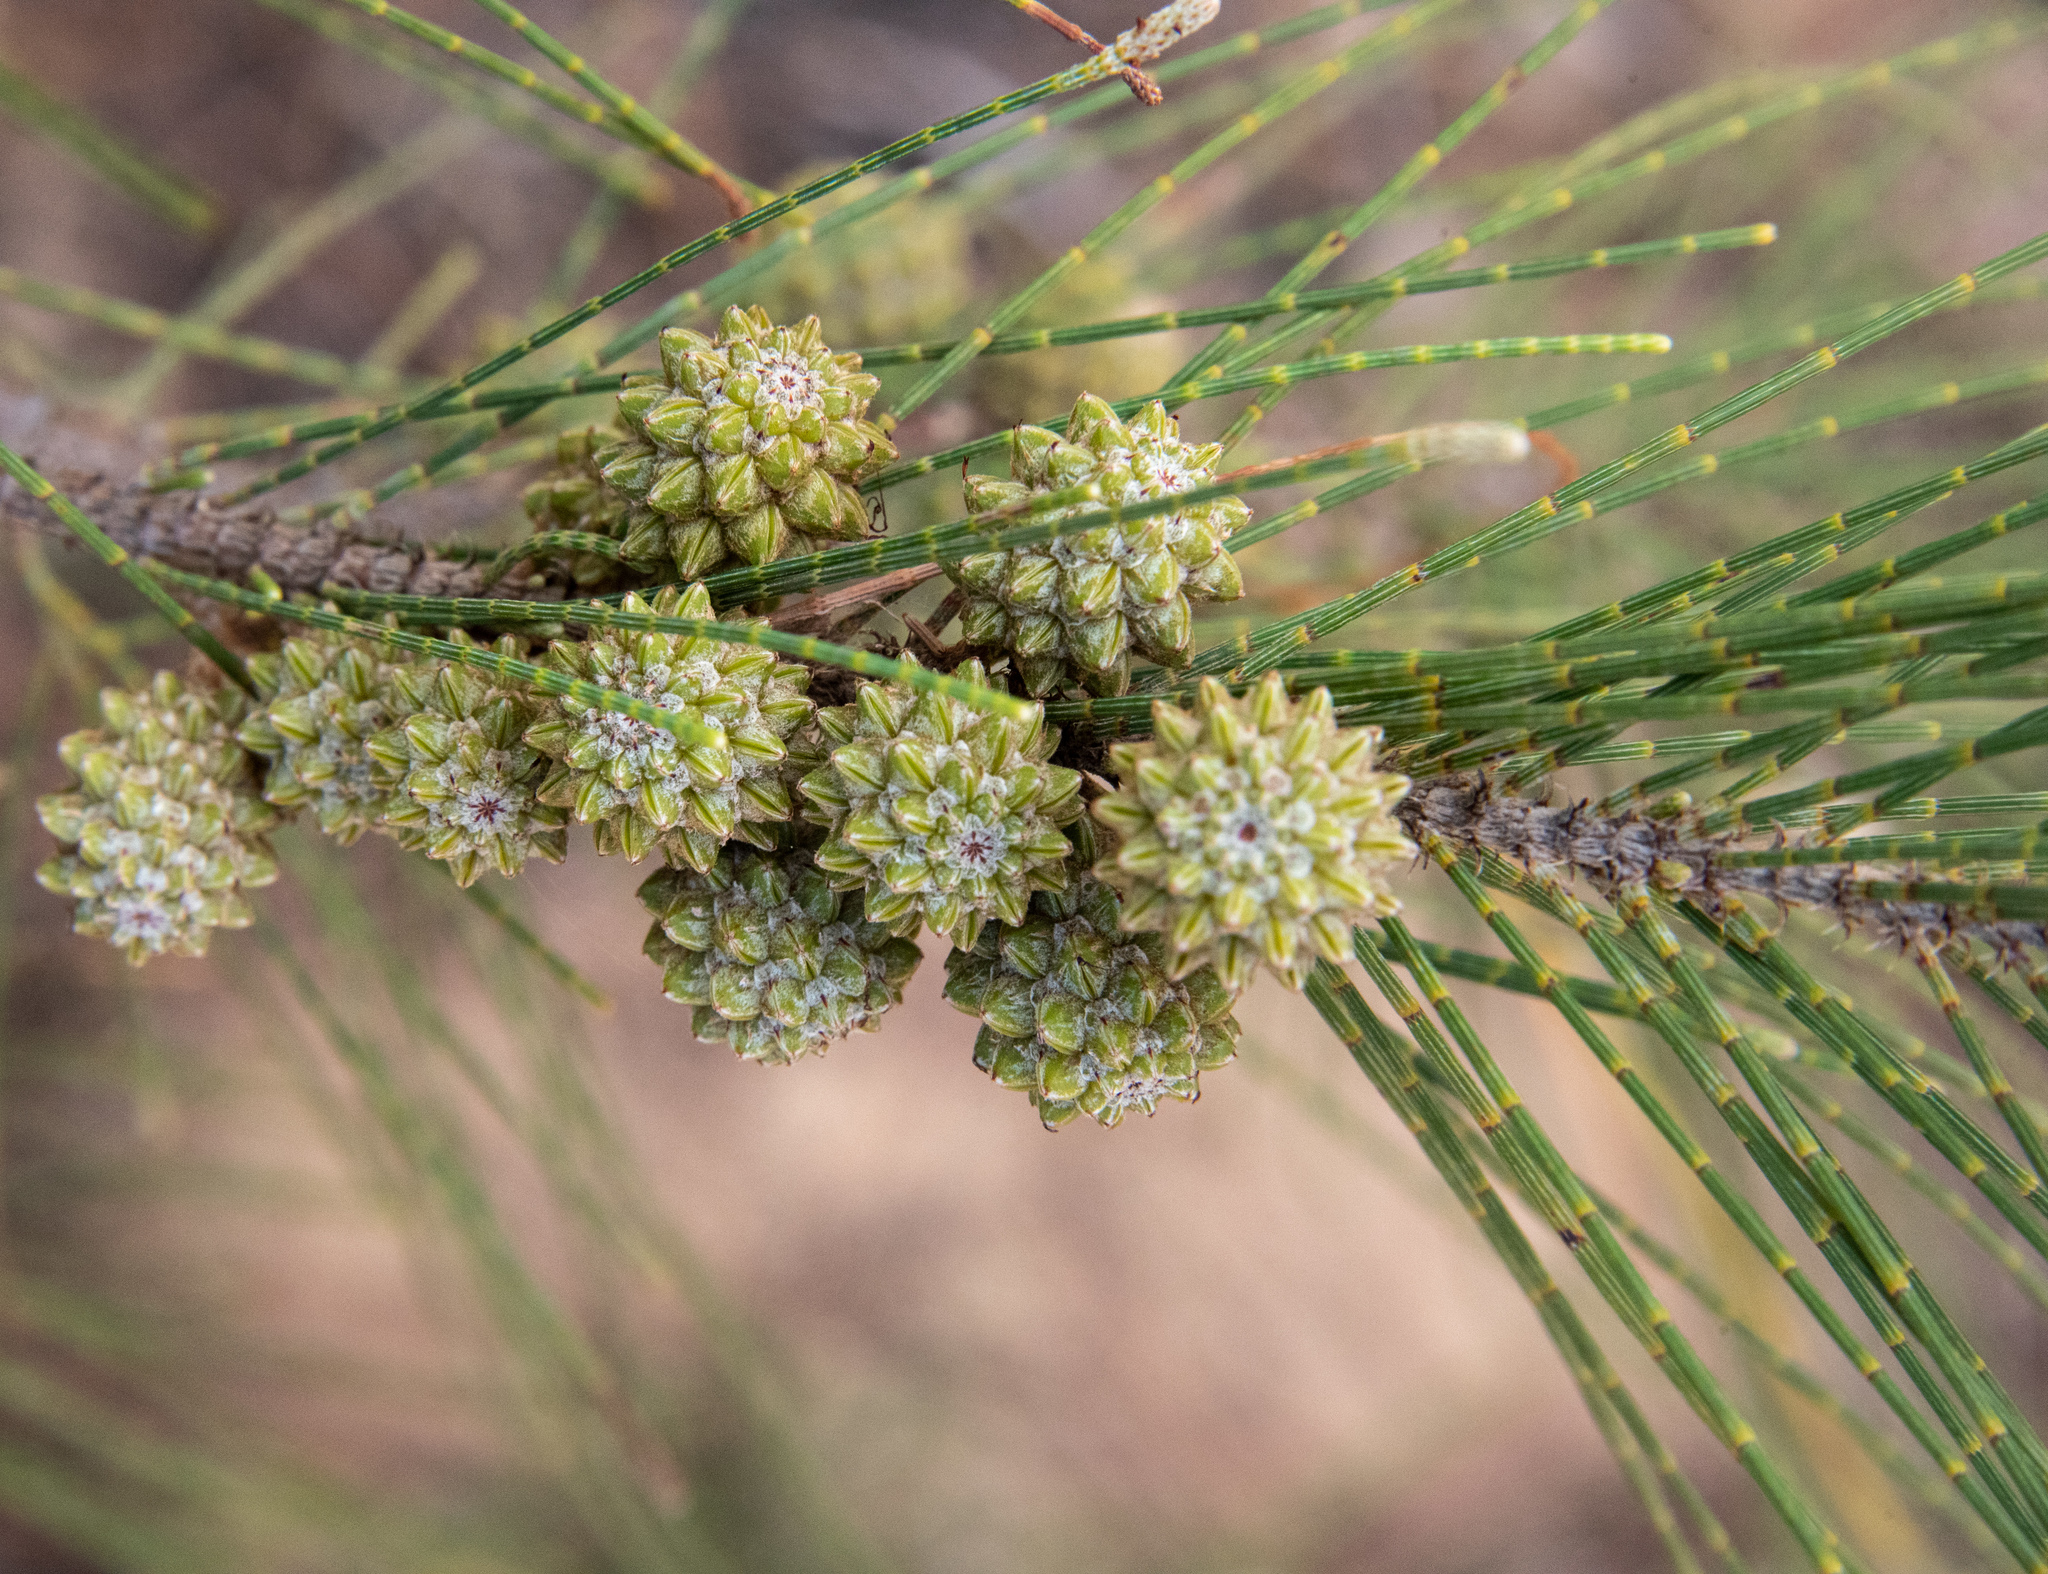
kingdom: Plantae
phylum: Tracheophyta
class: Magnoliopsida
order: Fagales
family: Casuarinaceae
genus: Casuarina
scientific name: Casuarina equisetifolia
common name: Beach sheoak
